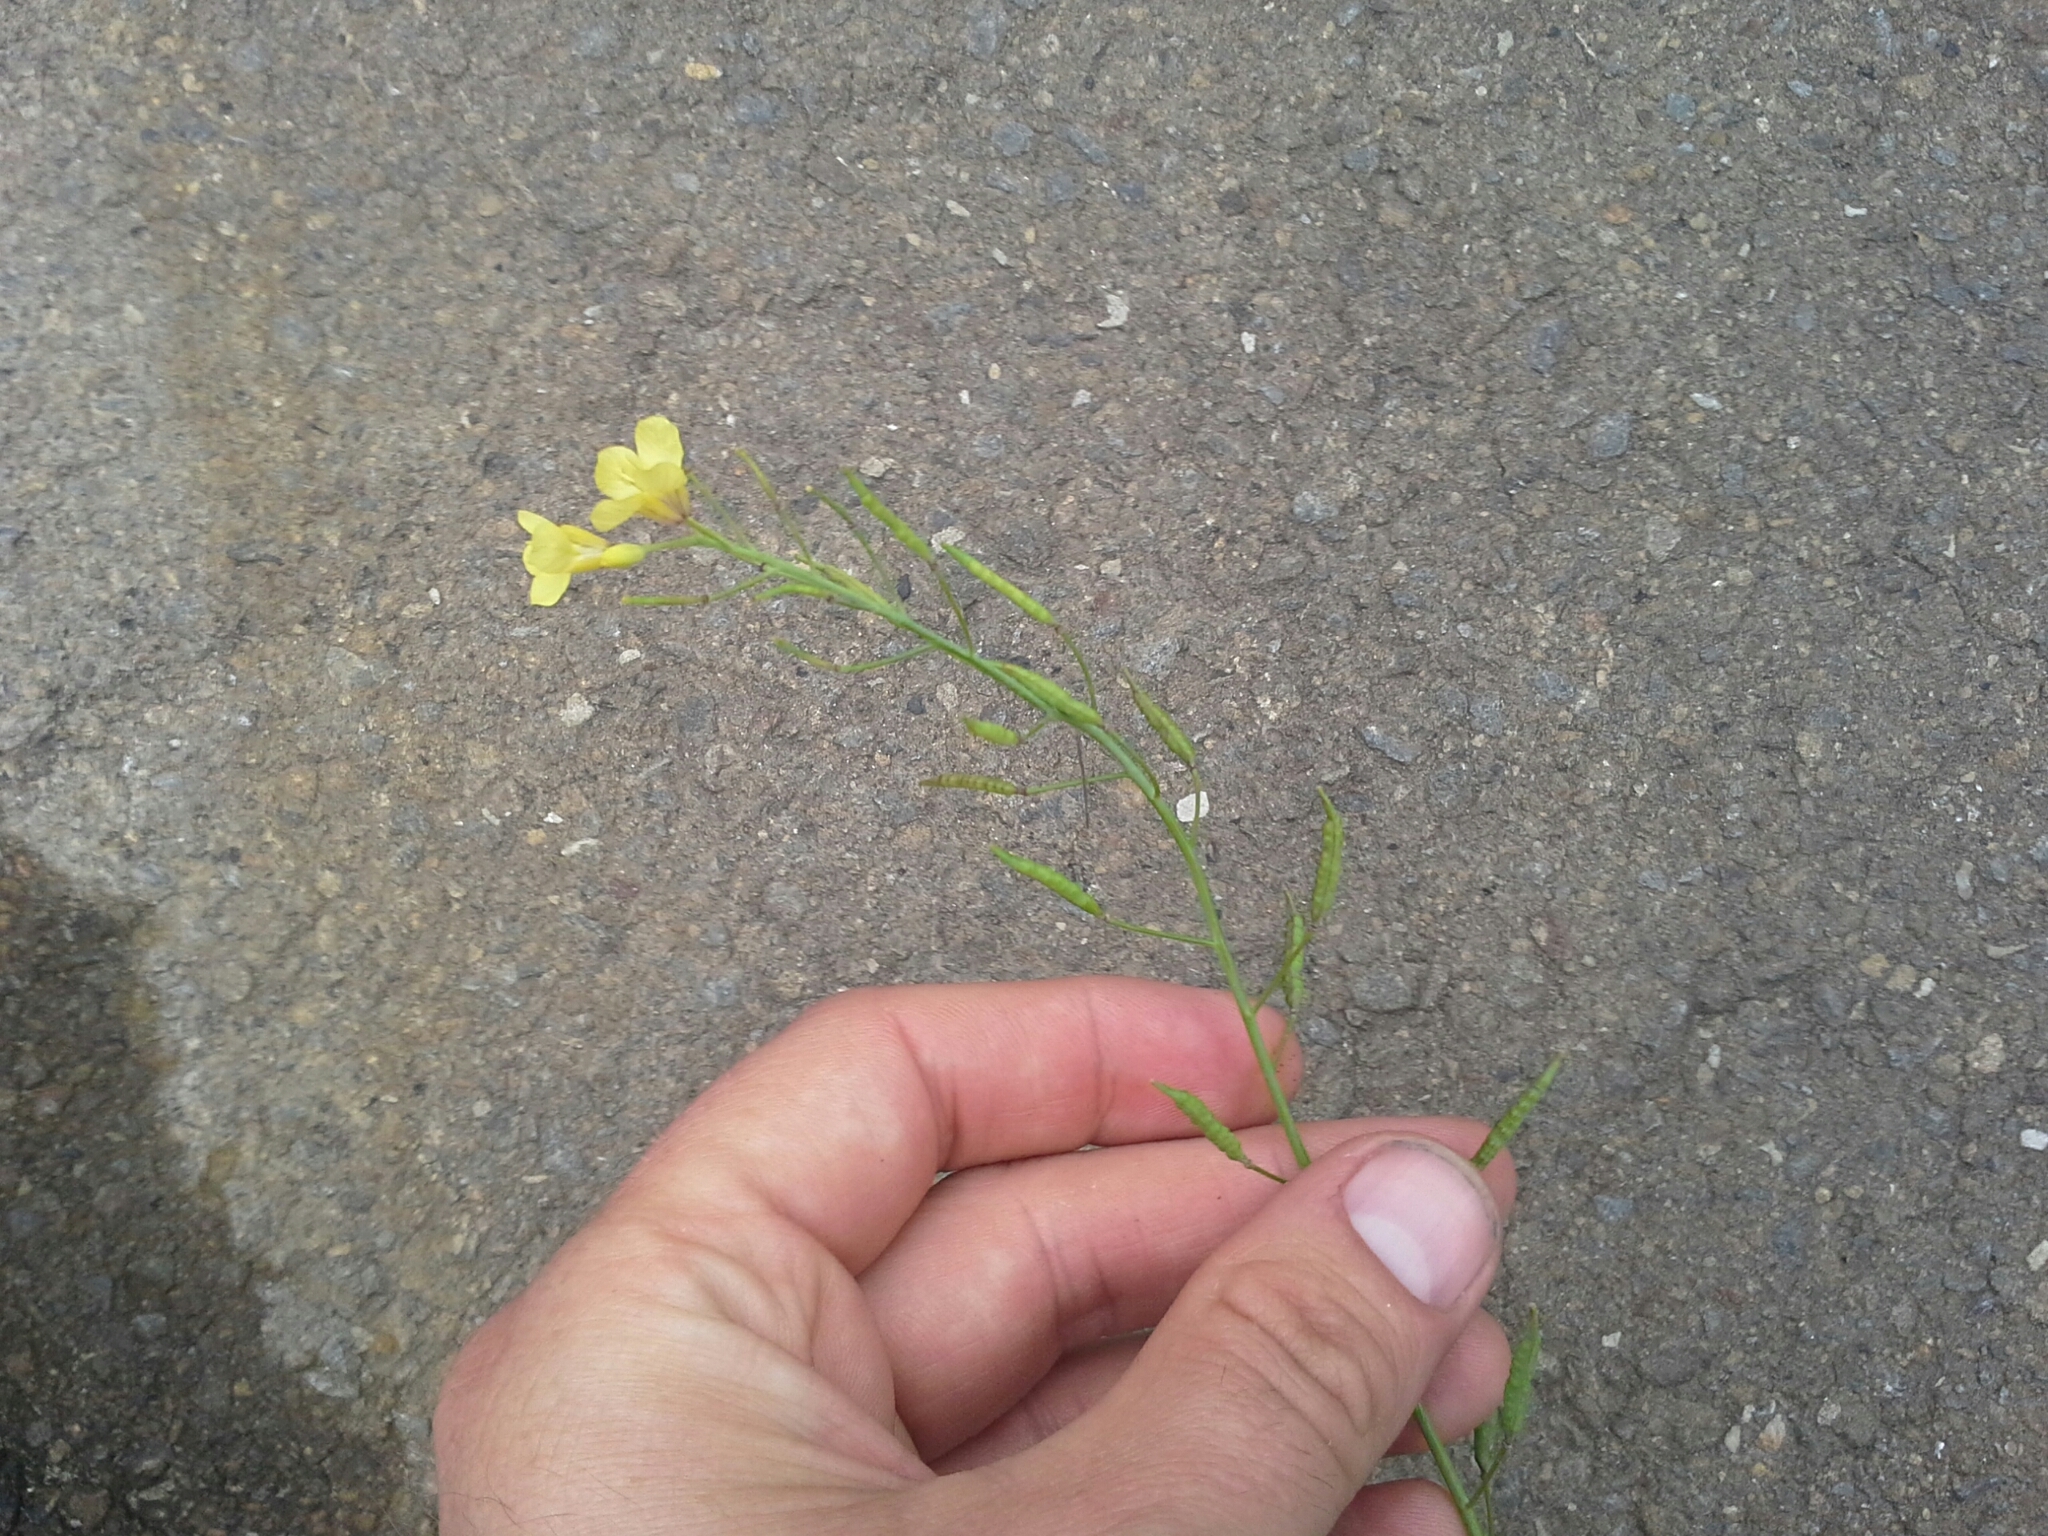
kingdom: Plantae
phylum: Tracheophyta
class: Magnoliopsida
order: Brassicales
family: Brassicaceae
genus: Brassica
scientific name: Brassica fruticulosa
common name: Twiggy turnip
